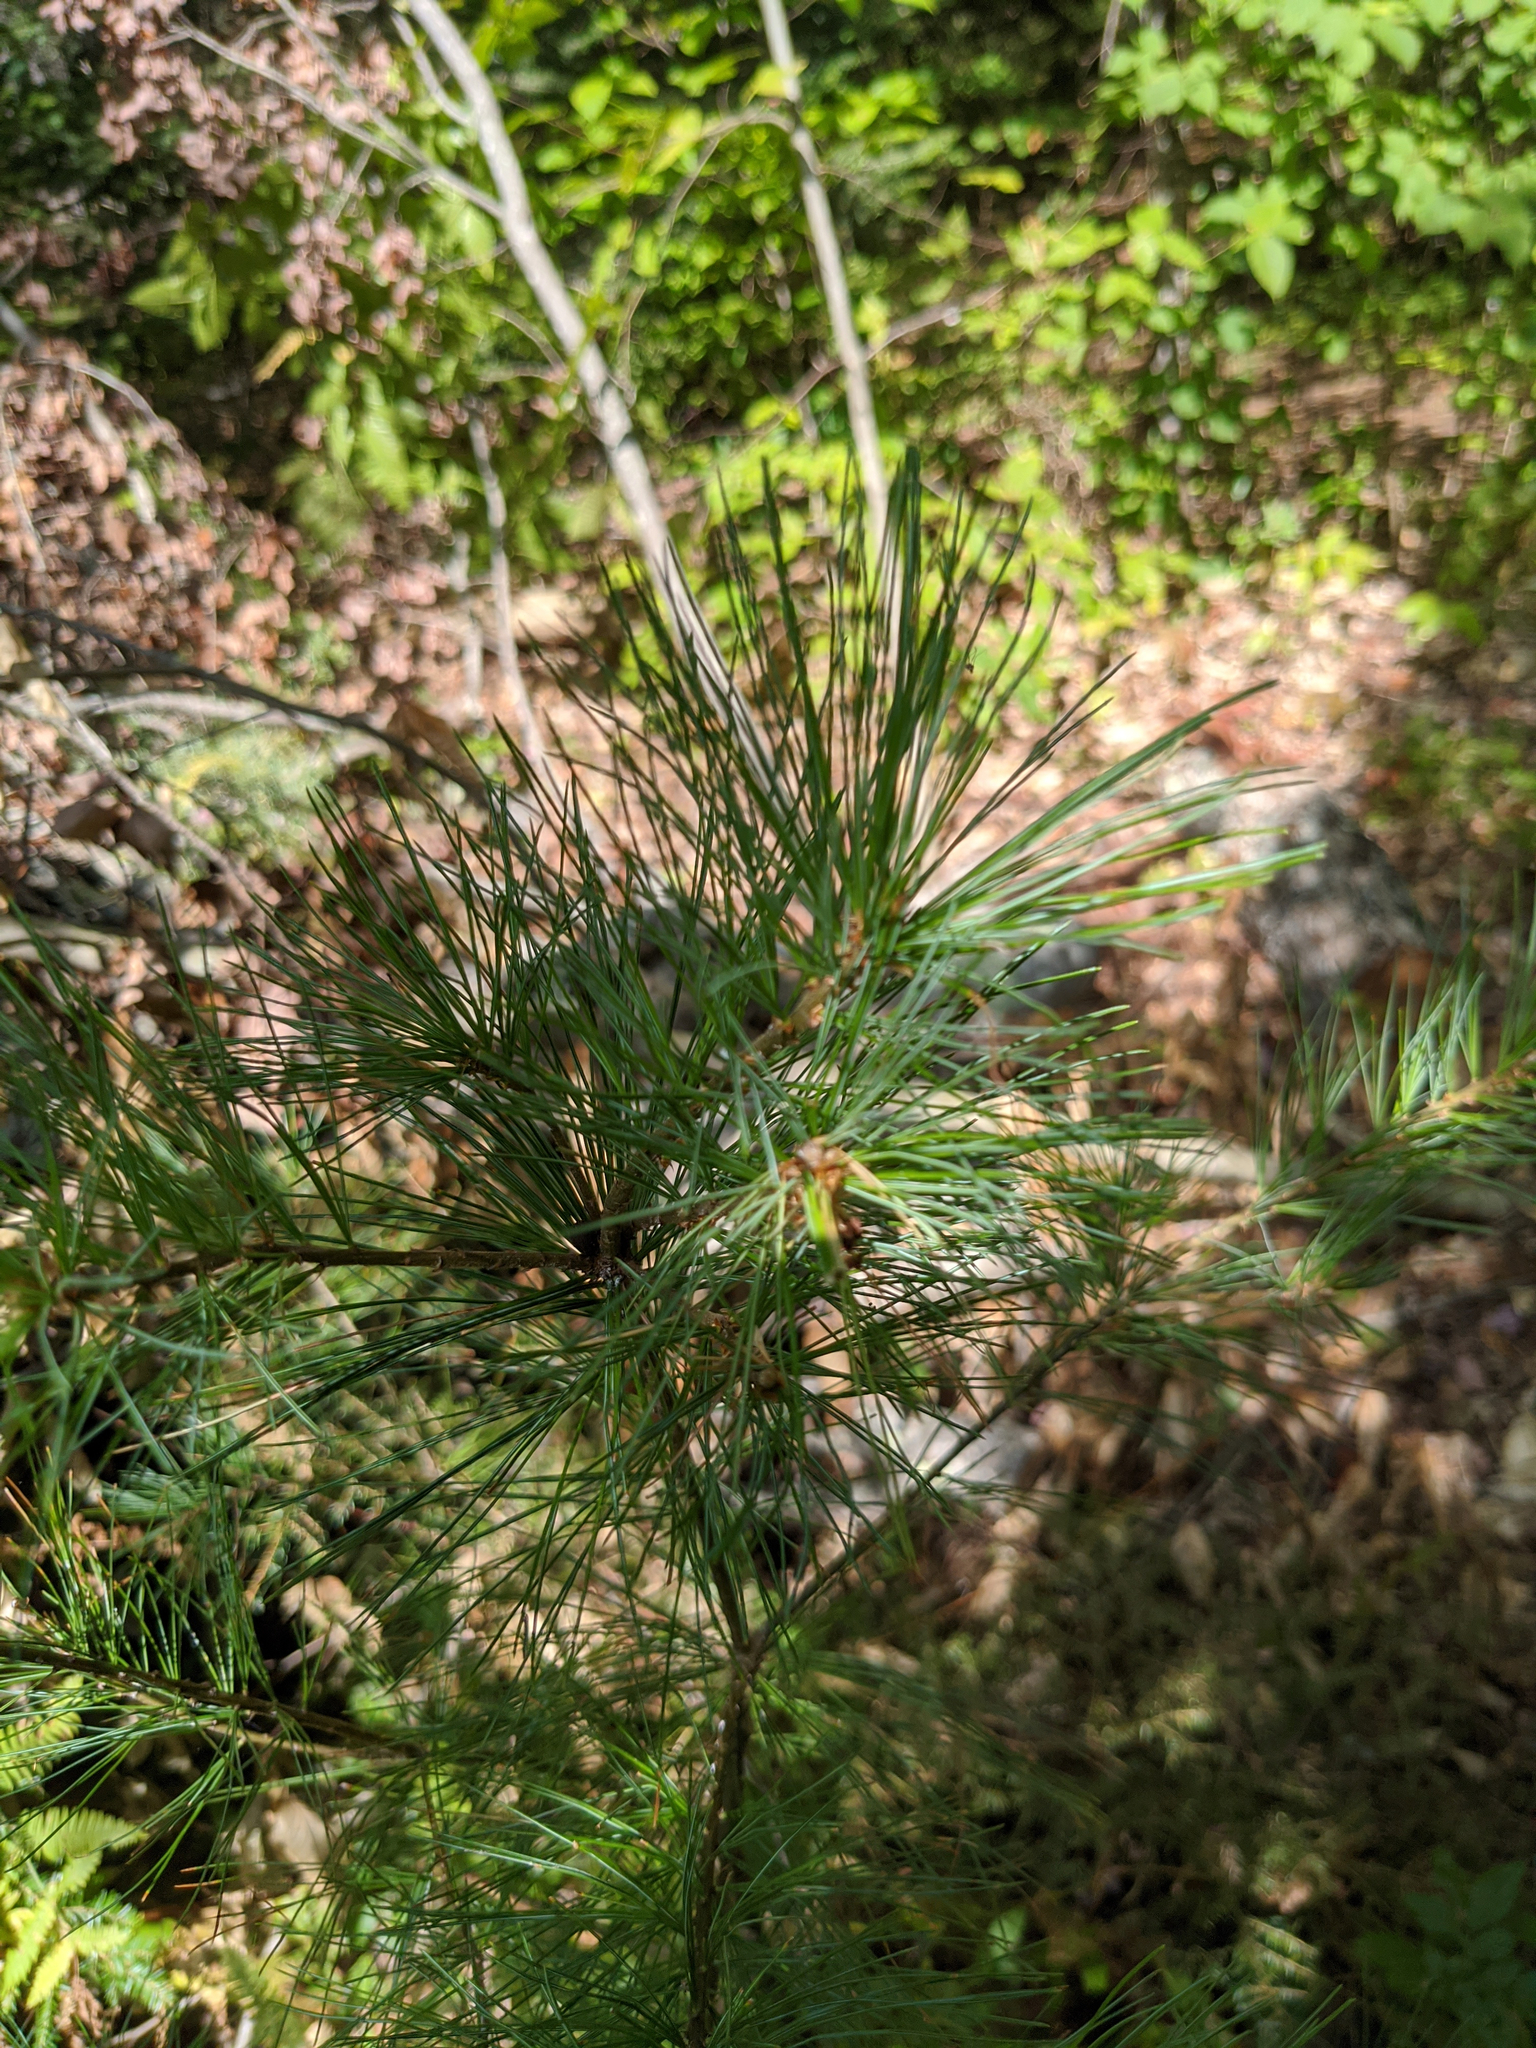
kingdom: Plantae
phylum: Tracheophyta
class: Pinopsida
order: Pinales
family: Pinaceae
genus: Pinus
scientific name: Pinus strobus
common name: Weymouth pine
